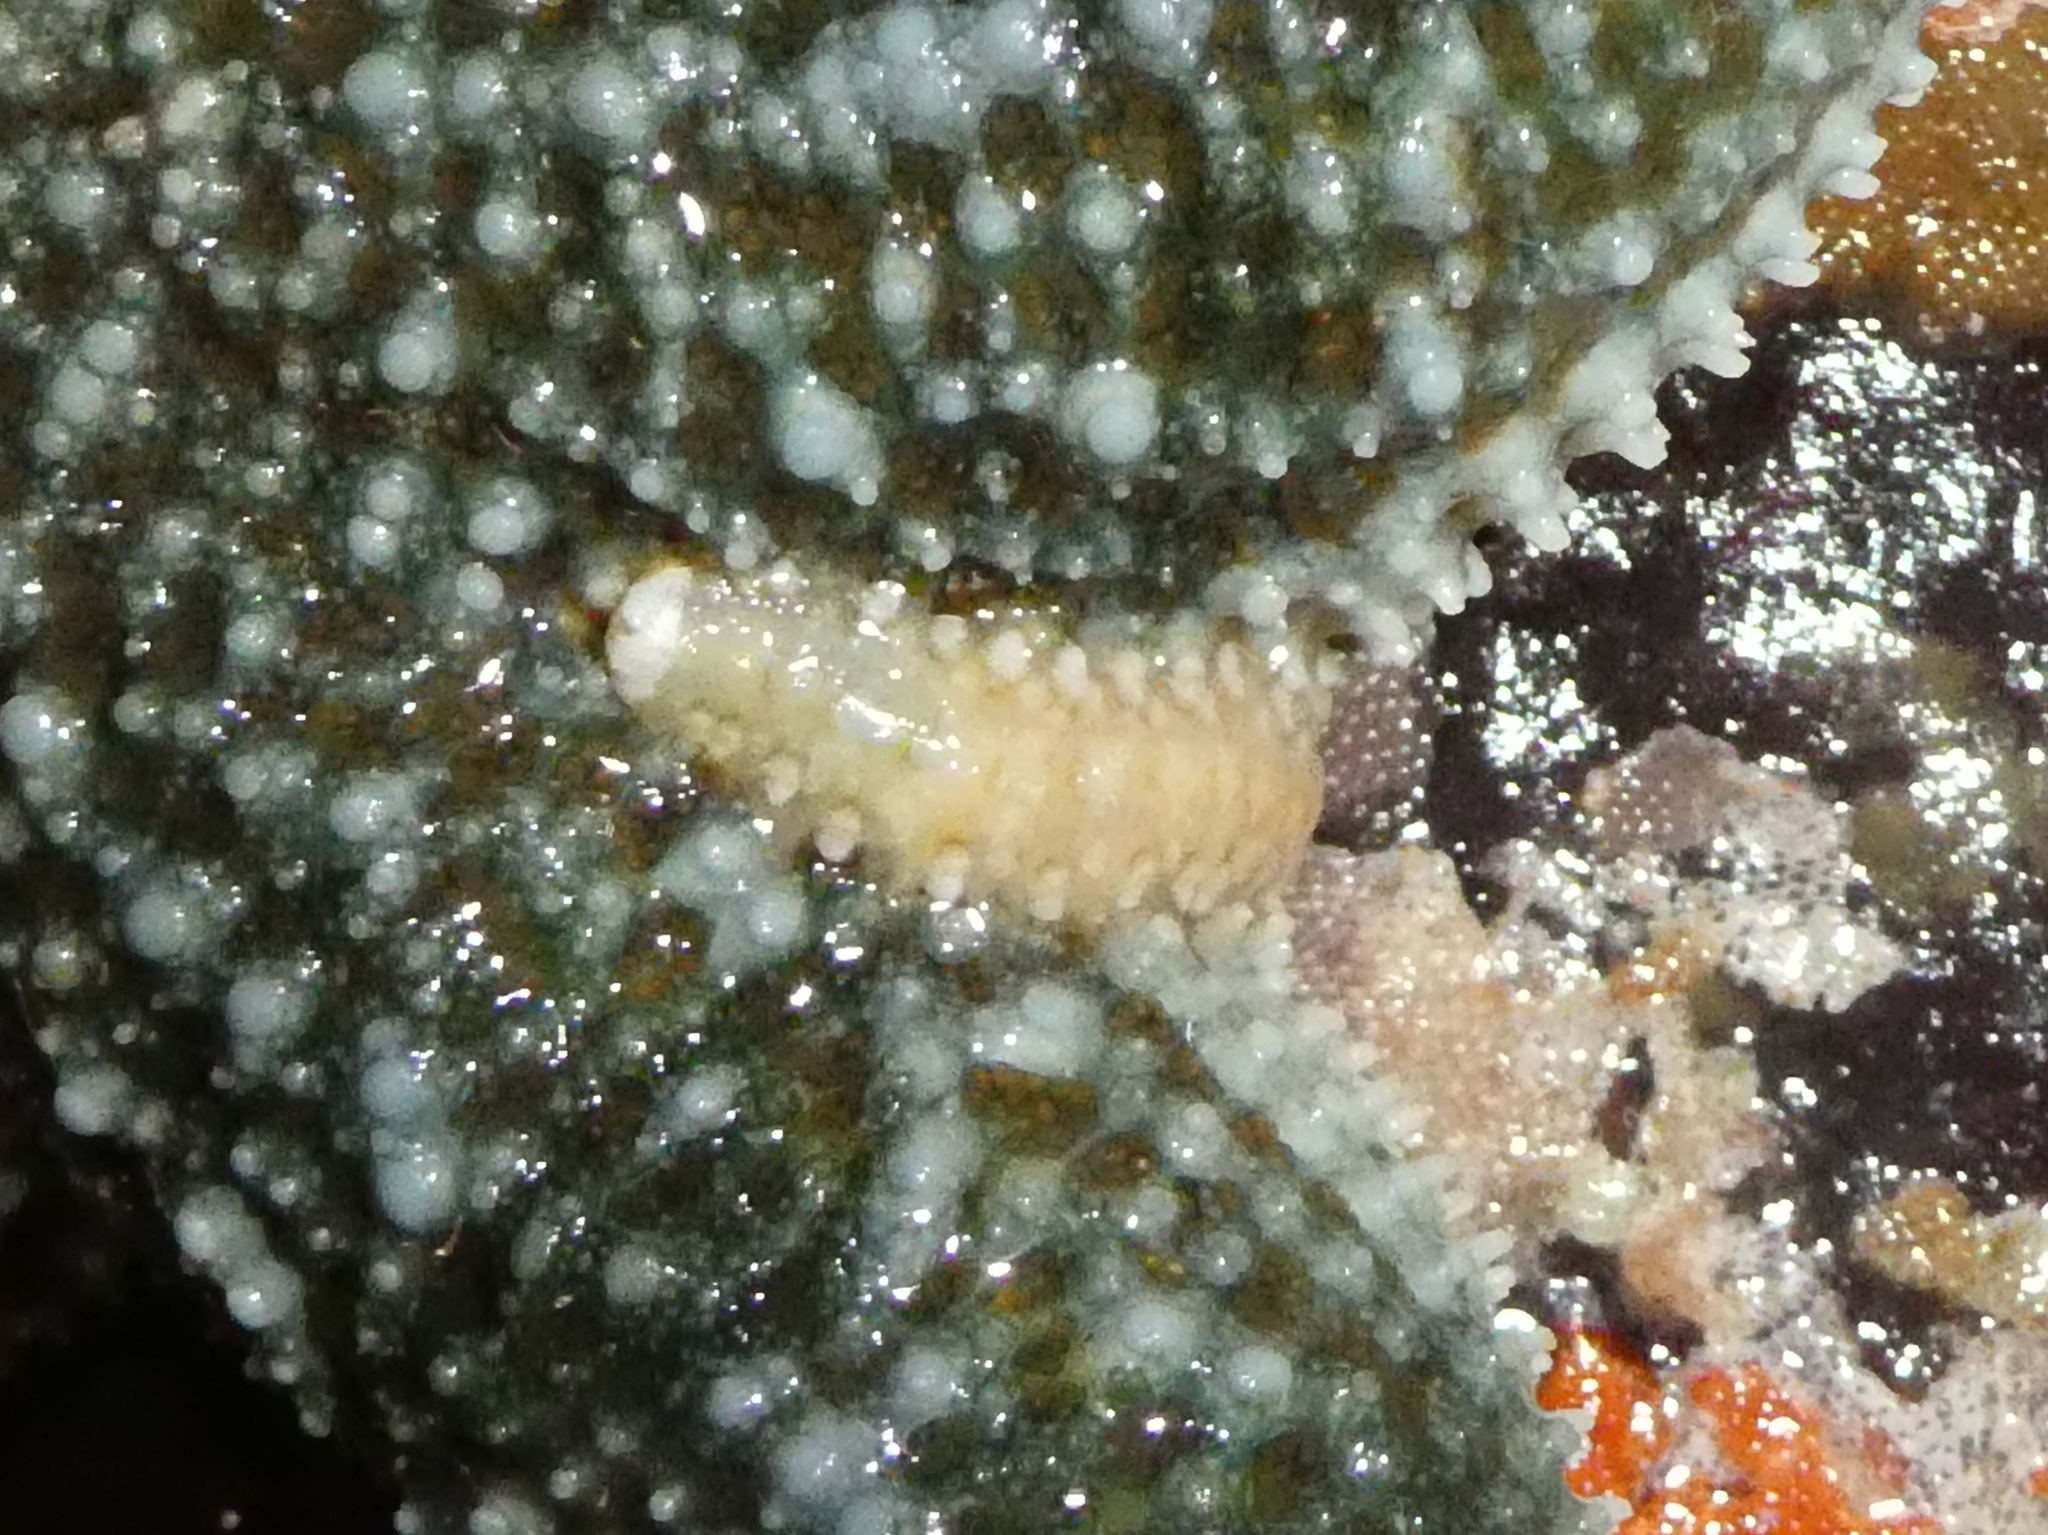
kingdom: Animalia
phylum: Annelida
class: Polychaeta
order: Phyllodocida
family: Polynoidae
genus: Arctonoe
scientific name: Arctonoe fragilis
